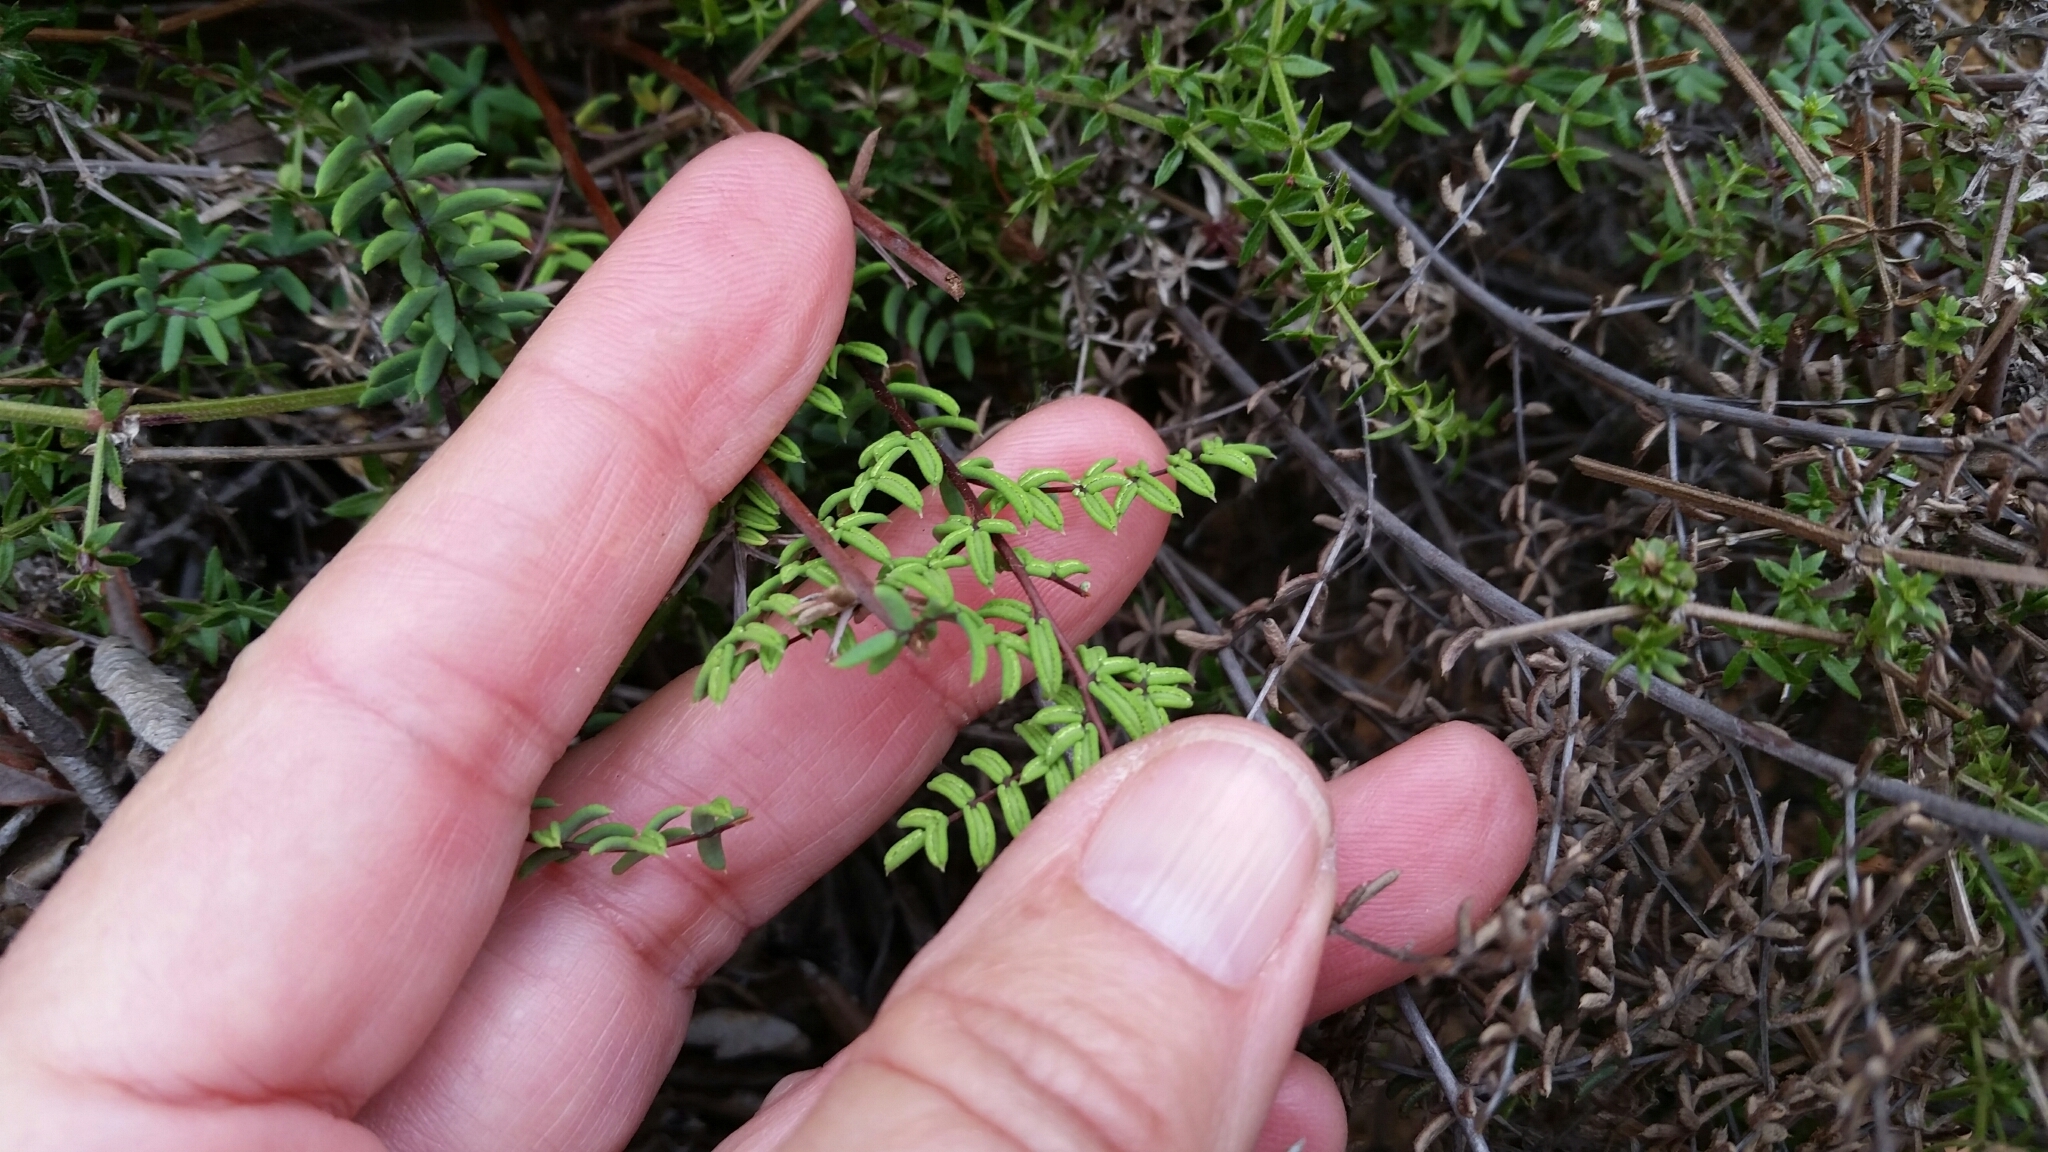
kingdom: Plantae
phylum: Tracheophyta
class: Polypodiopsida
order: Polypodiales
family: Pteridaceae
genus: Pellaea
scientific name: Pellaea mucronata
